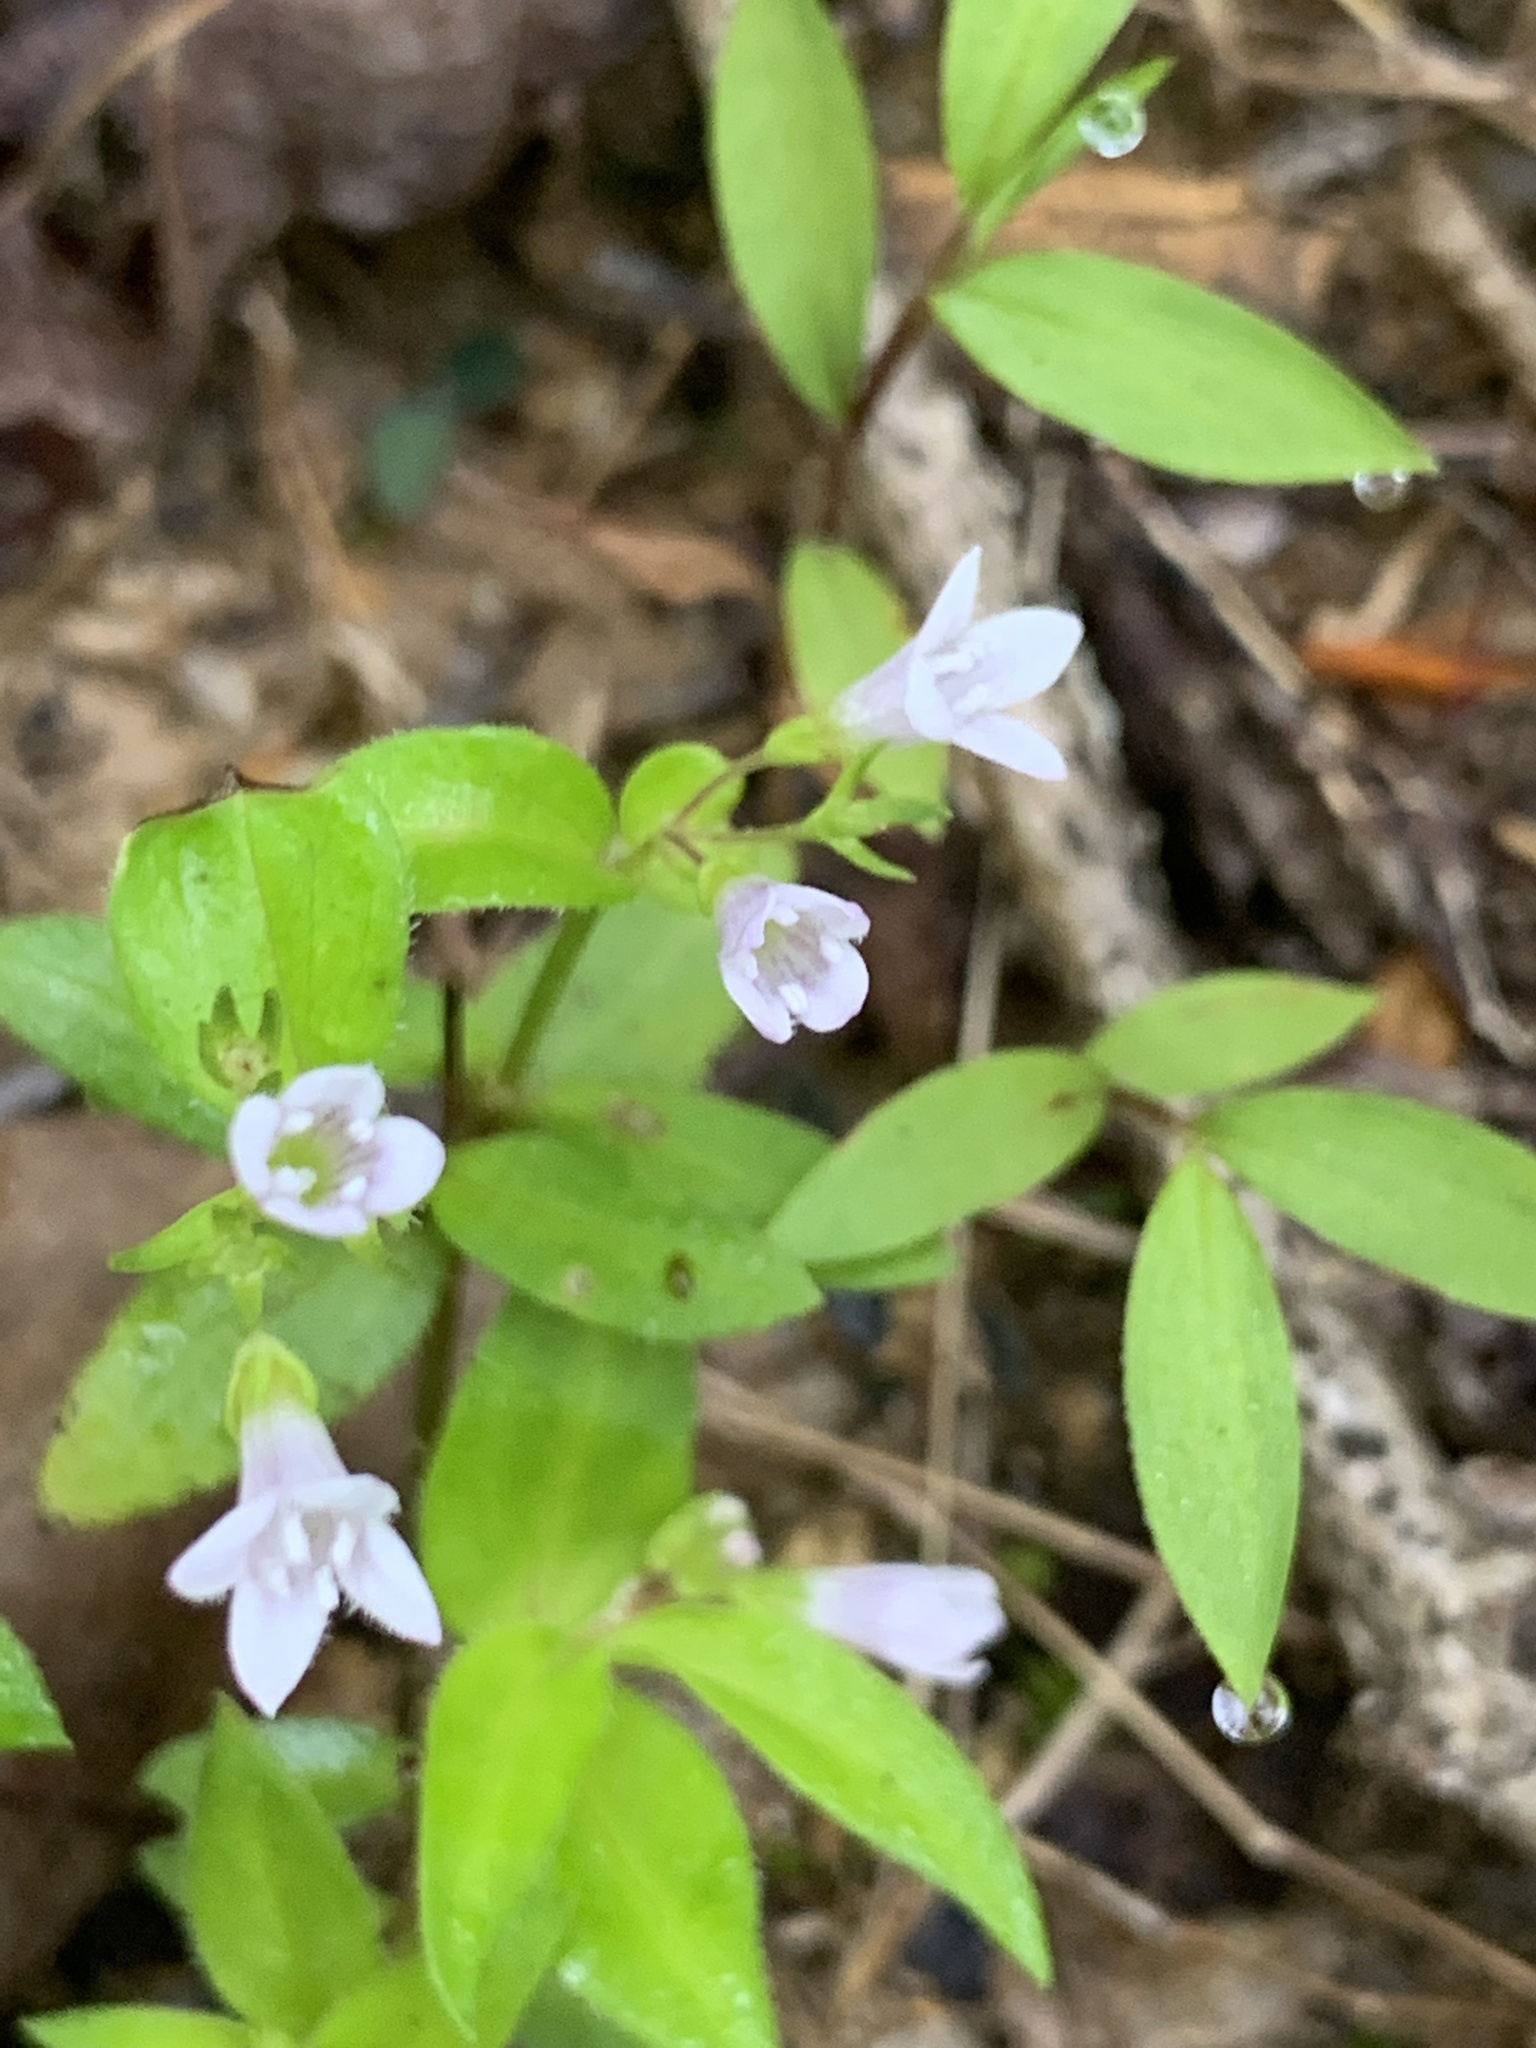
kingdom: Plantae
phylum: Tracheophyta
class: Magnoliopsida
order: Gentianales
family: Rubiaceae
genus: Houstonia
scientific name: Houstonia purpurea
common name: Summer bluet
